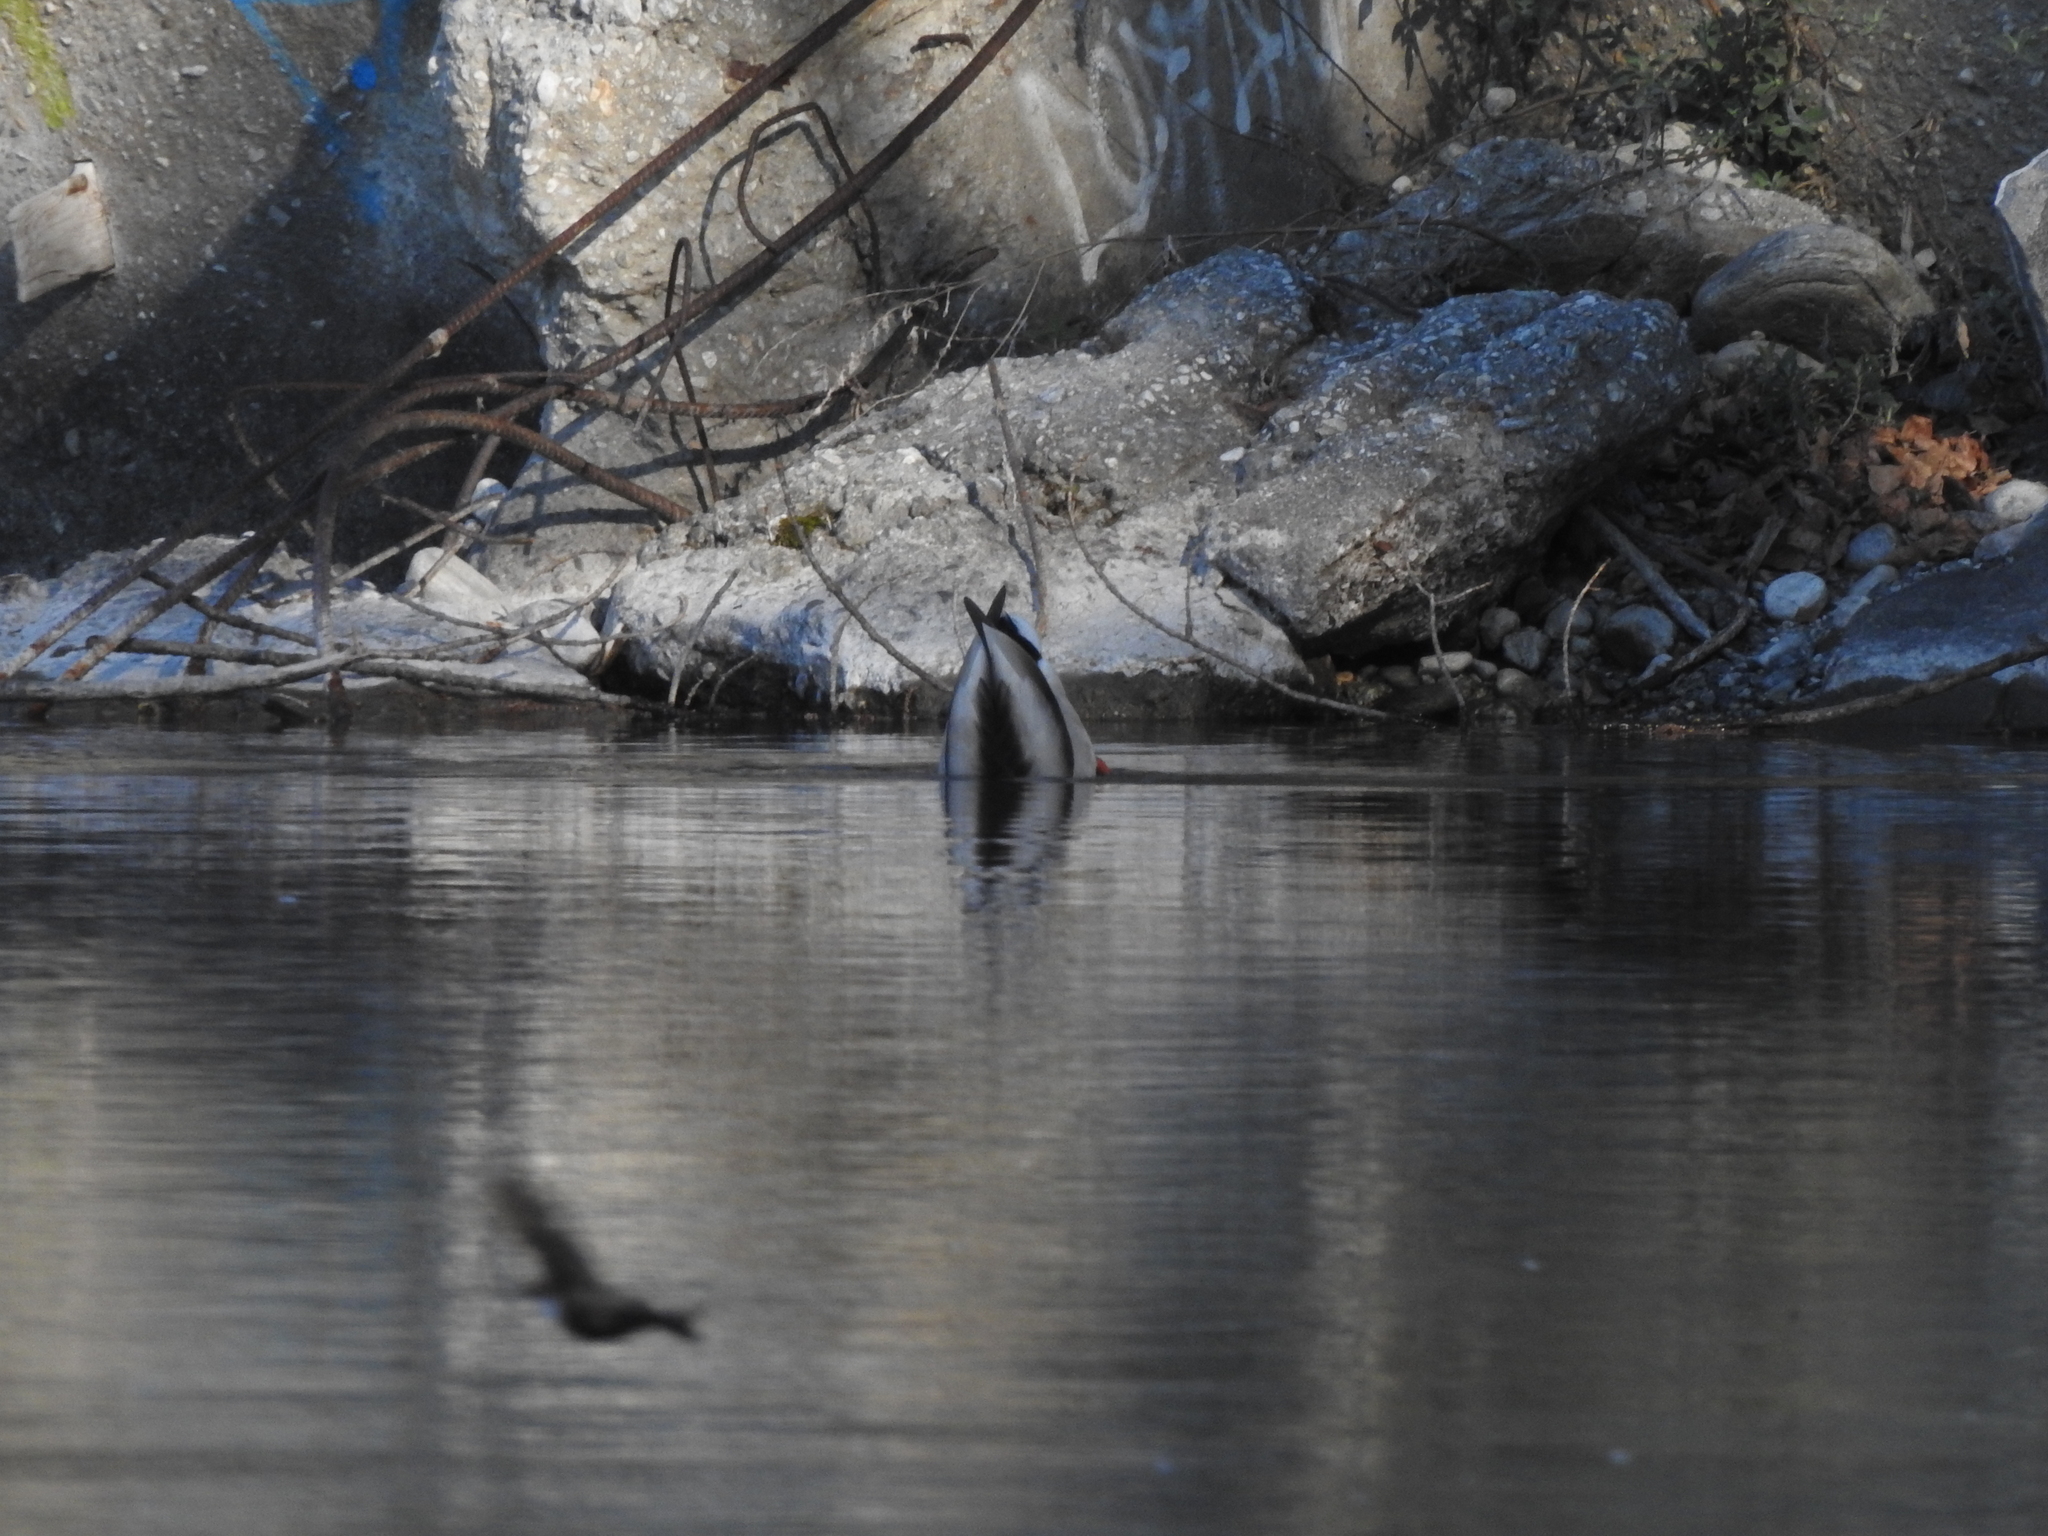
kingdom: Animalia
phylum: Chordata
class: Aves
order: Anseriformes
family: Anatidae
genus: Anas
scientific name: Anas platyrhynchos
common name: Mallard
